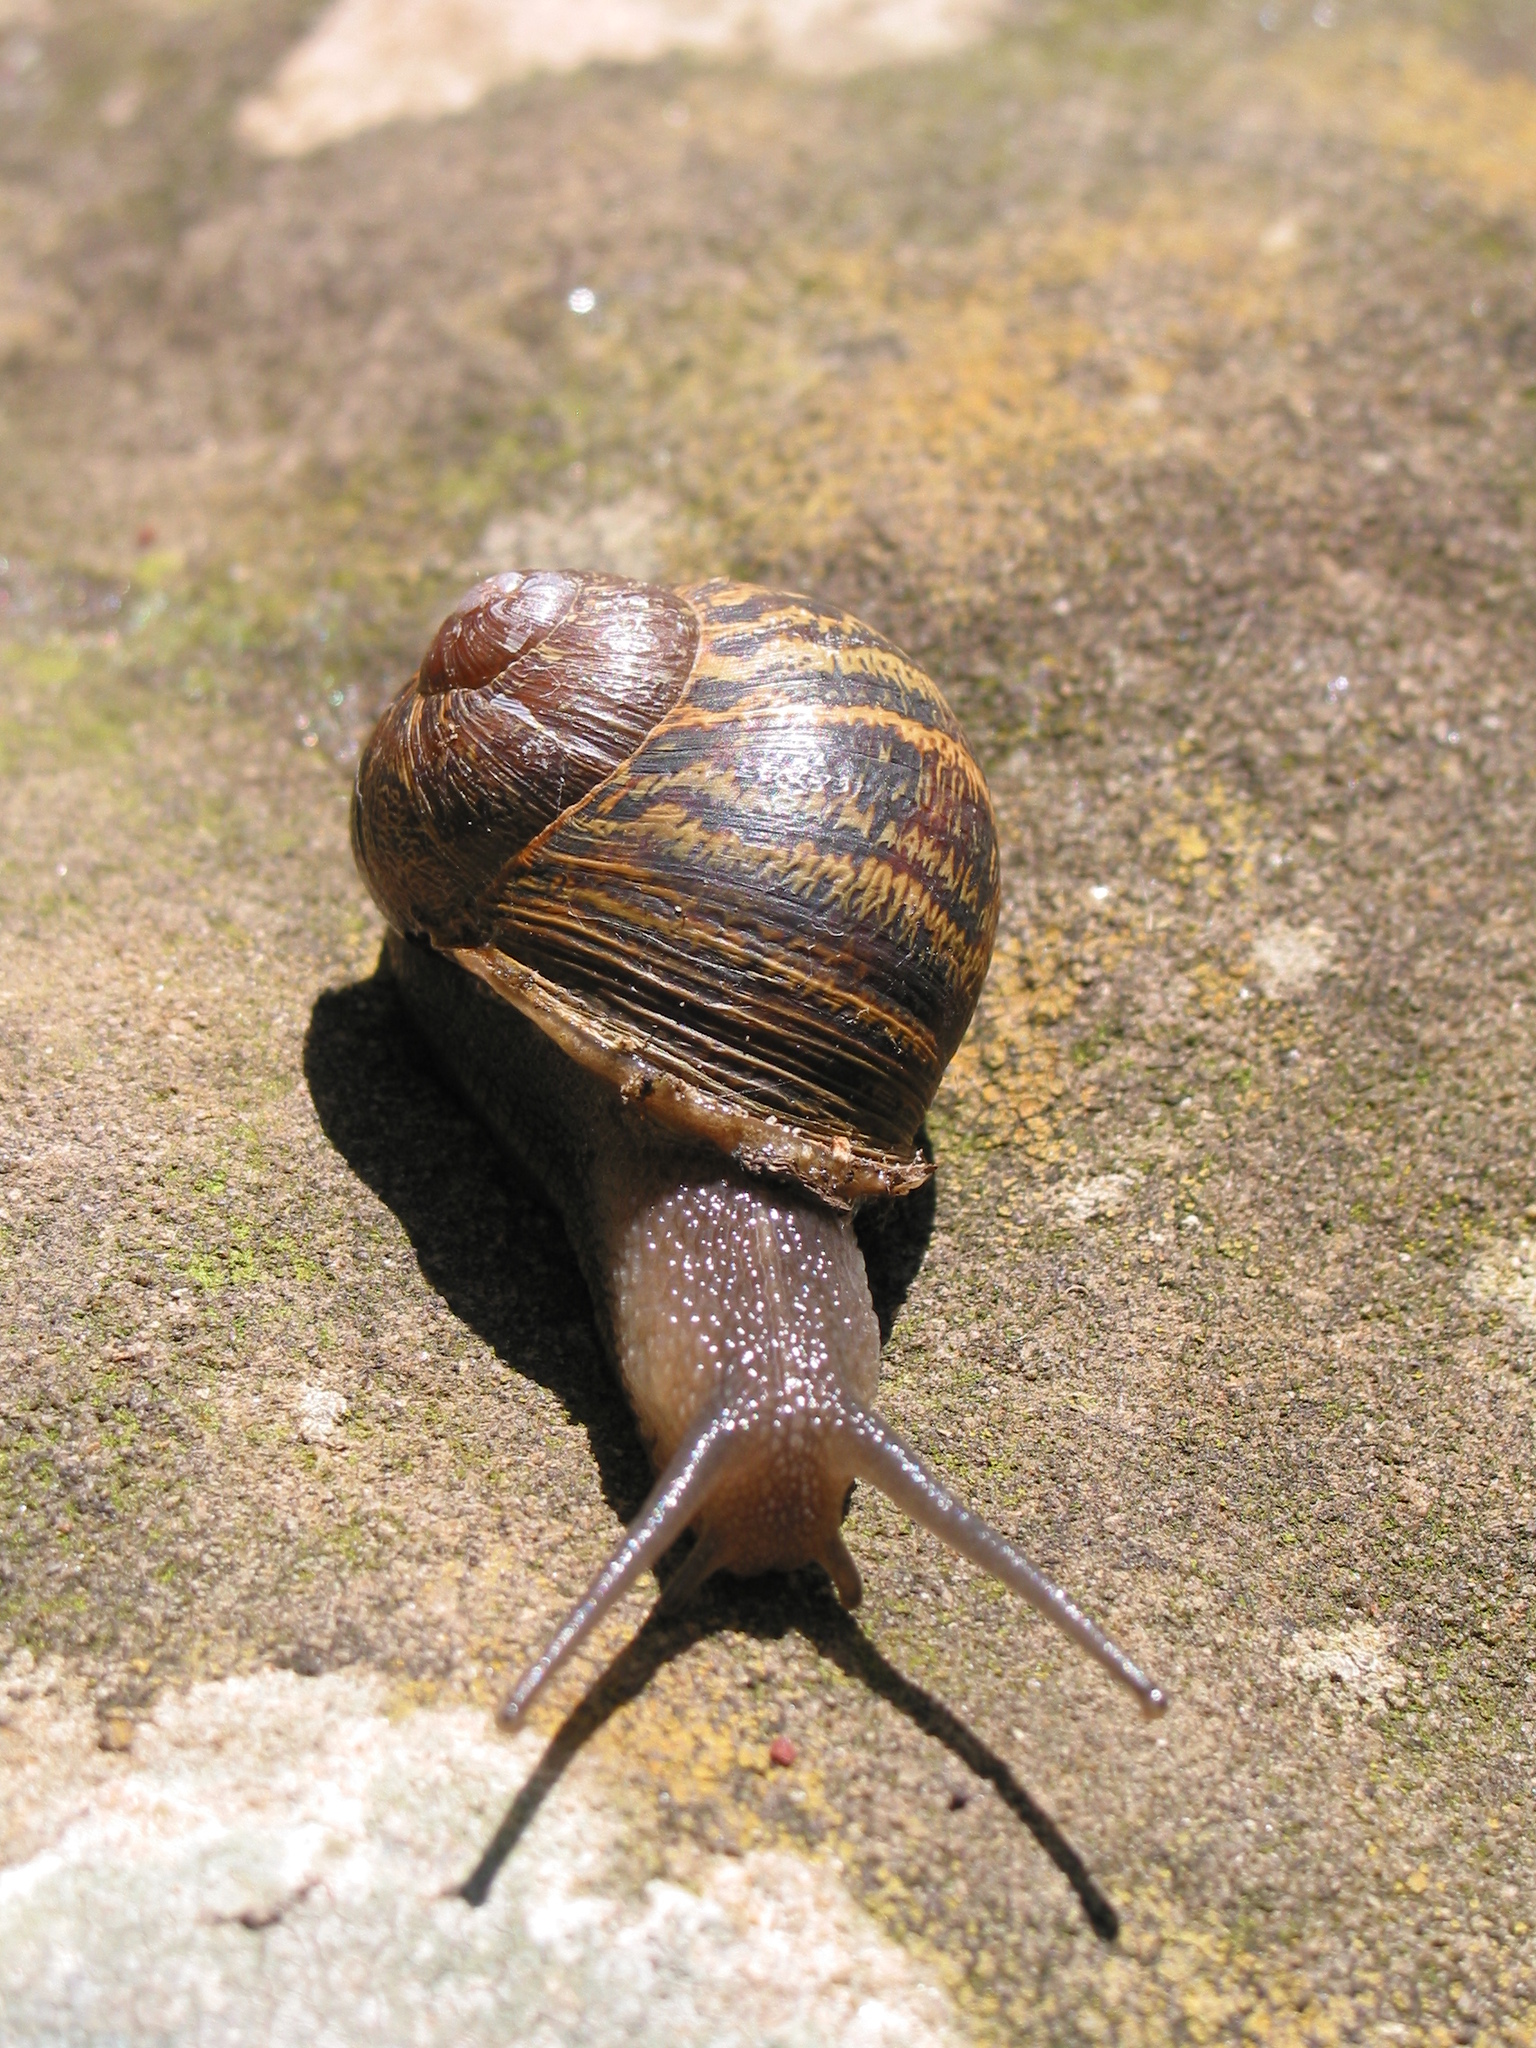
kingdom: Animalia
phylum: Mollusca
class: Gastropoda
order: Stylommatophora
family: Helicidae
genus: Cornu
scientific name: Cornu aspersum
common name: Brown garden snail
